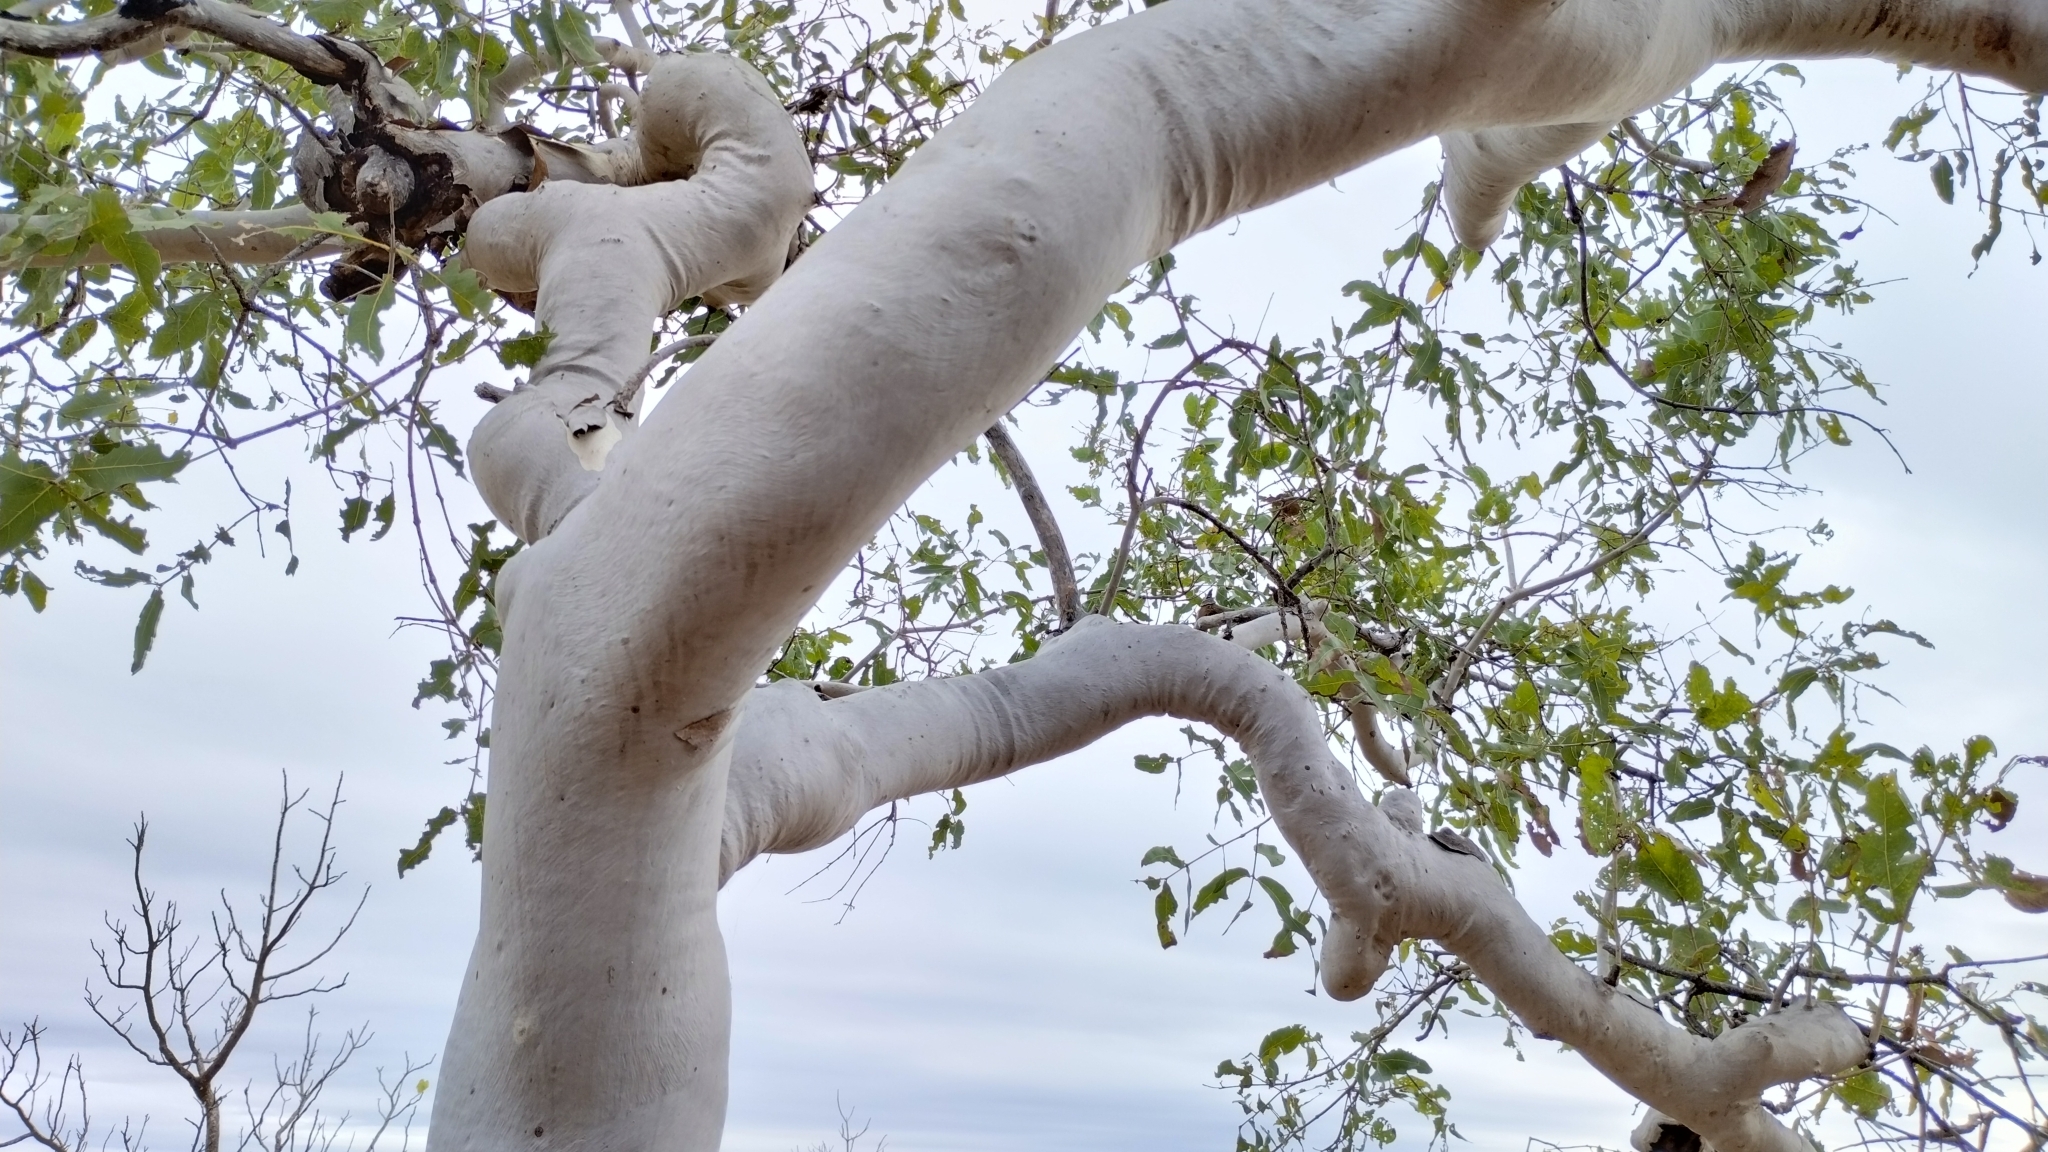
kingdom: Plantae
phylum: Tracheophyta
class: Magnoliopsida
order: Myrtales
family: Myrtaceae
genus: Corymbia
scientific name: Corymbia clavigera
